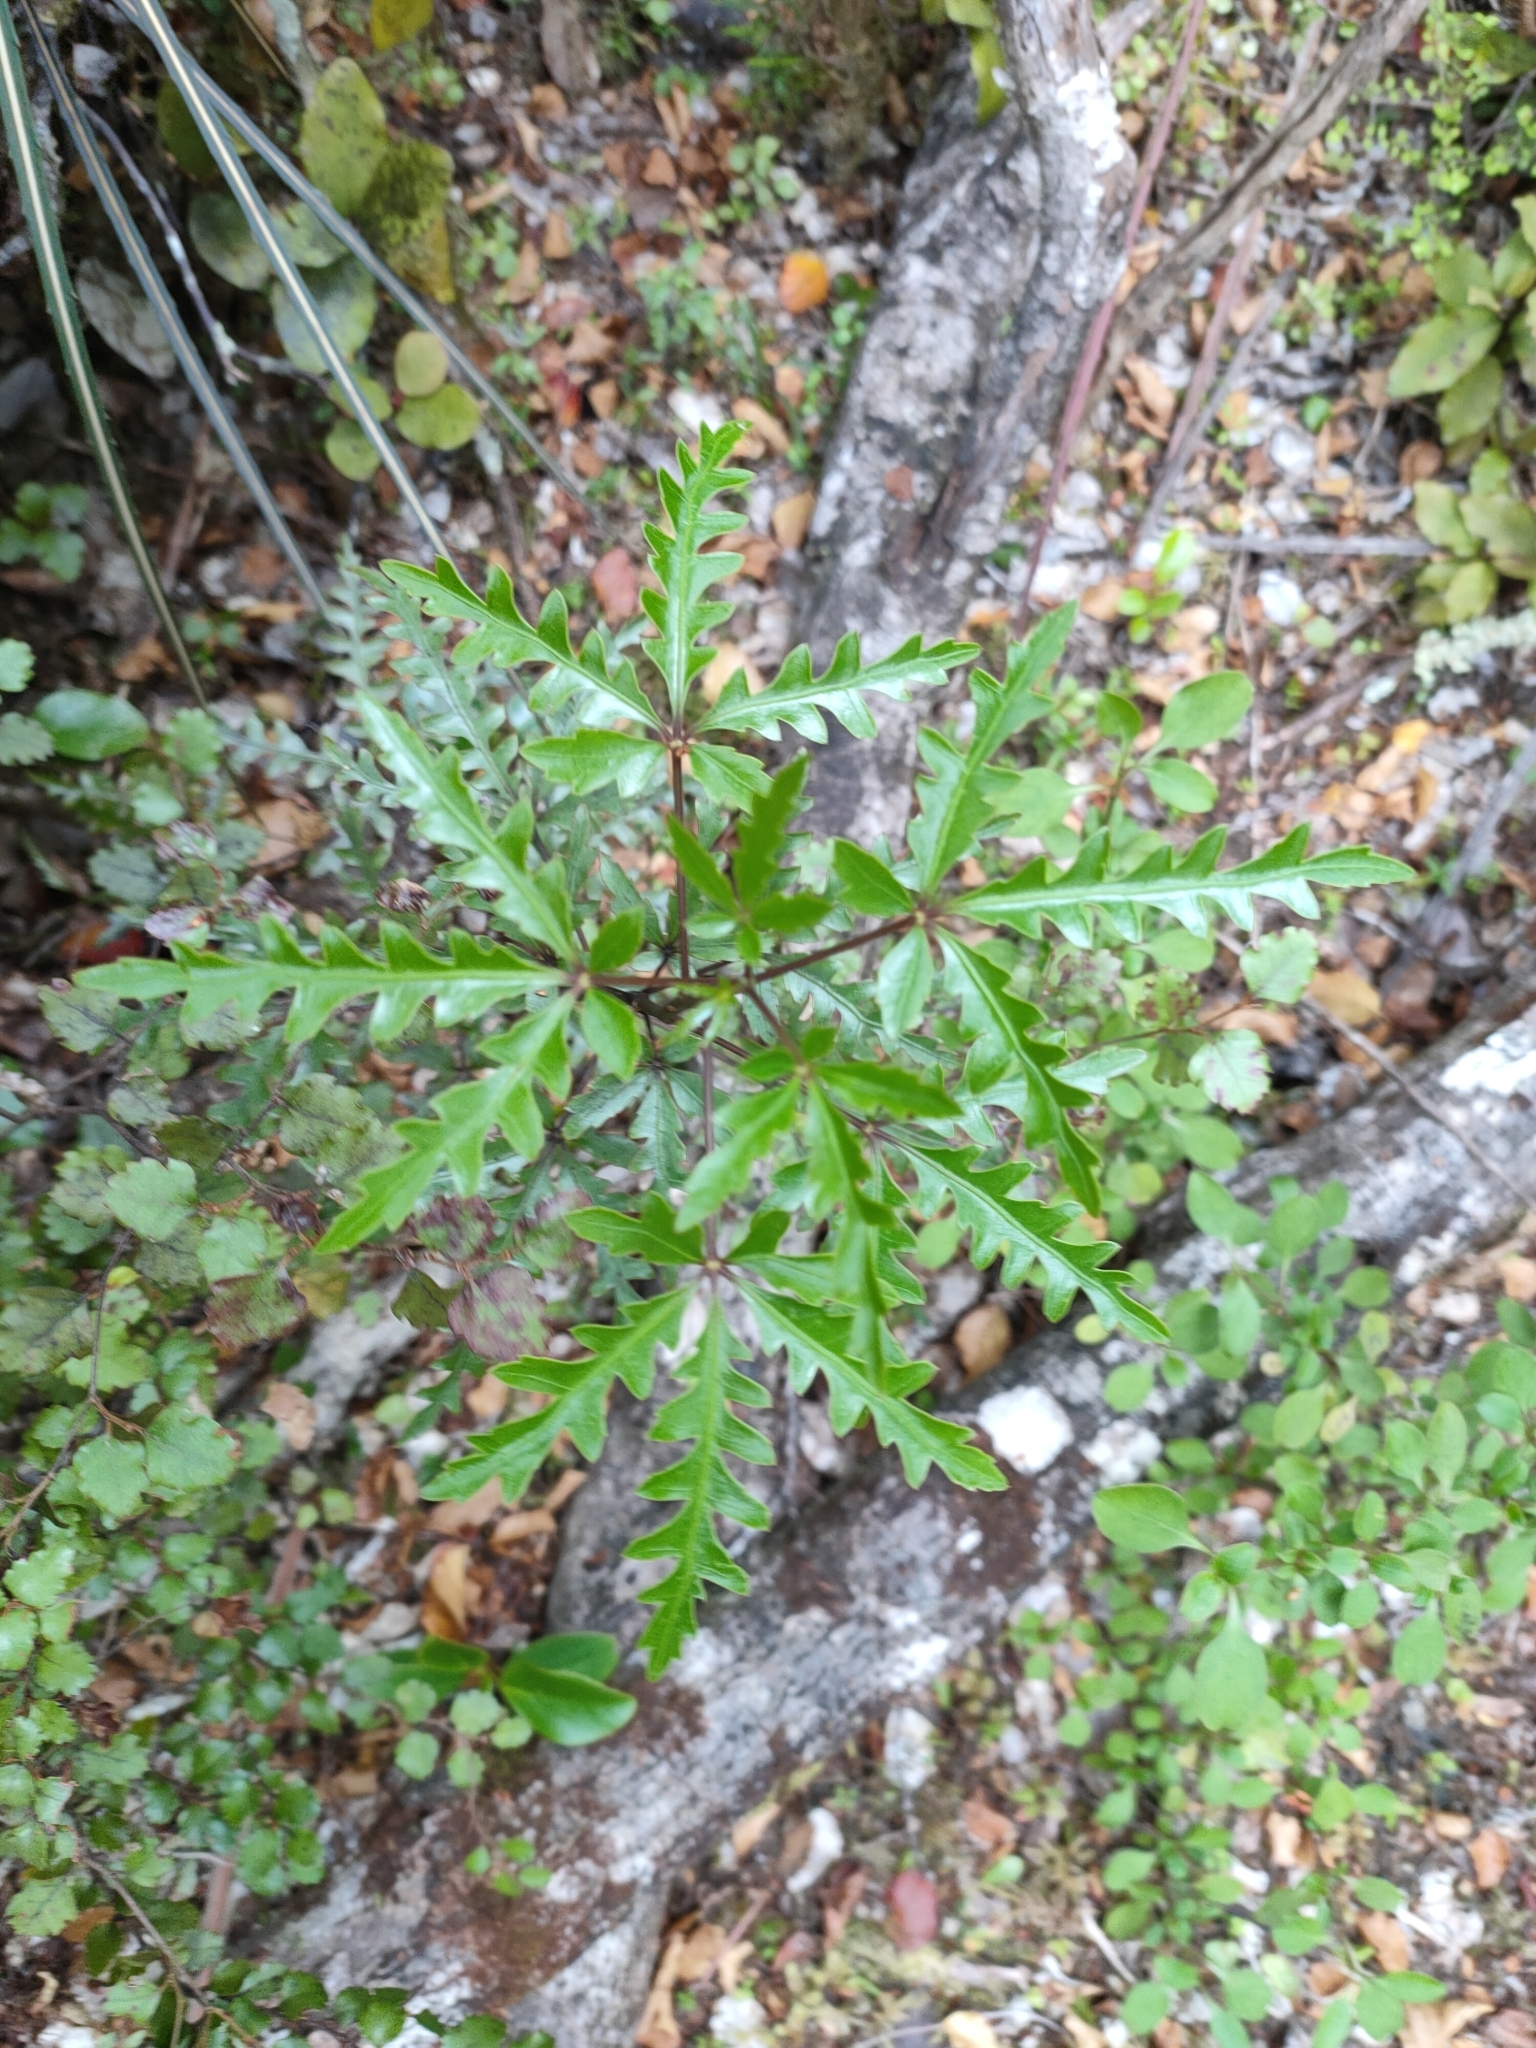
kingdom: Plantae
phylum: Tracheophyta
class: Magnoliopsida
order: Apiales
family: Araliaceae
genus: Raukaua
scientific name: Raukaua simplex
